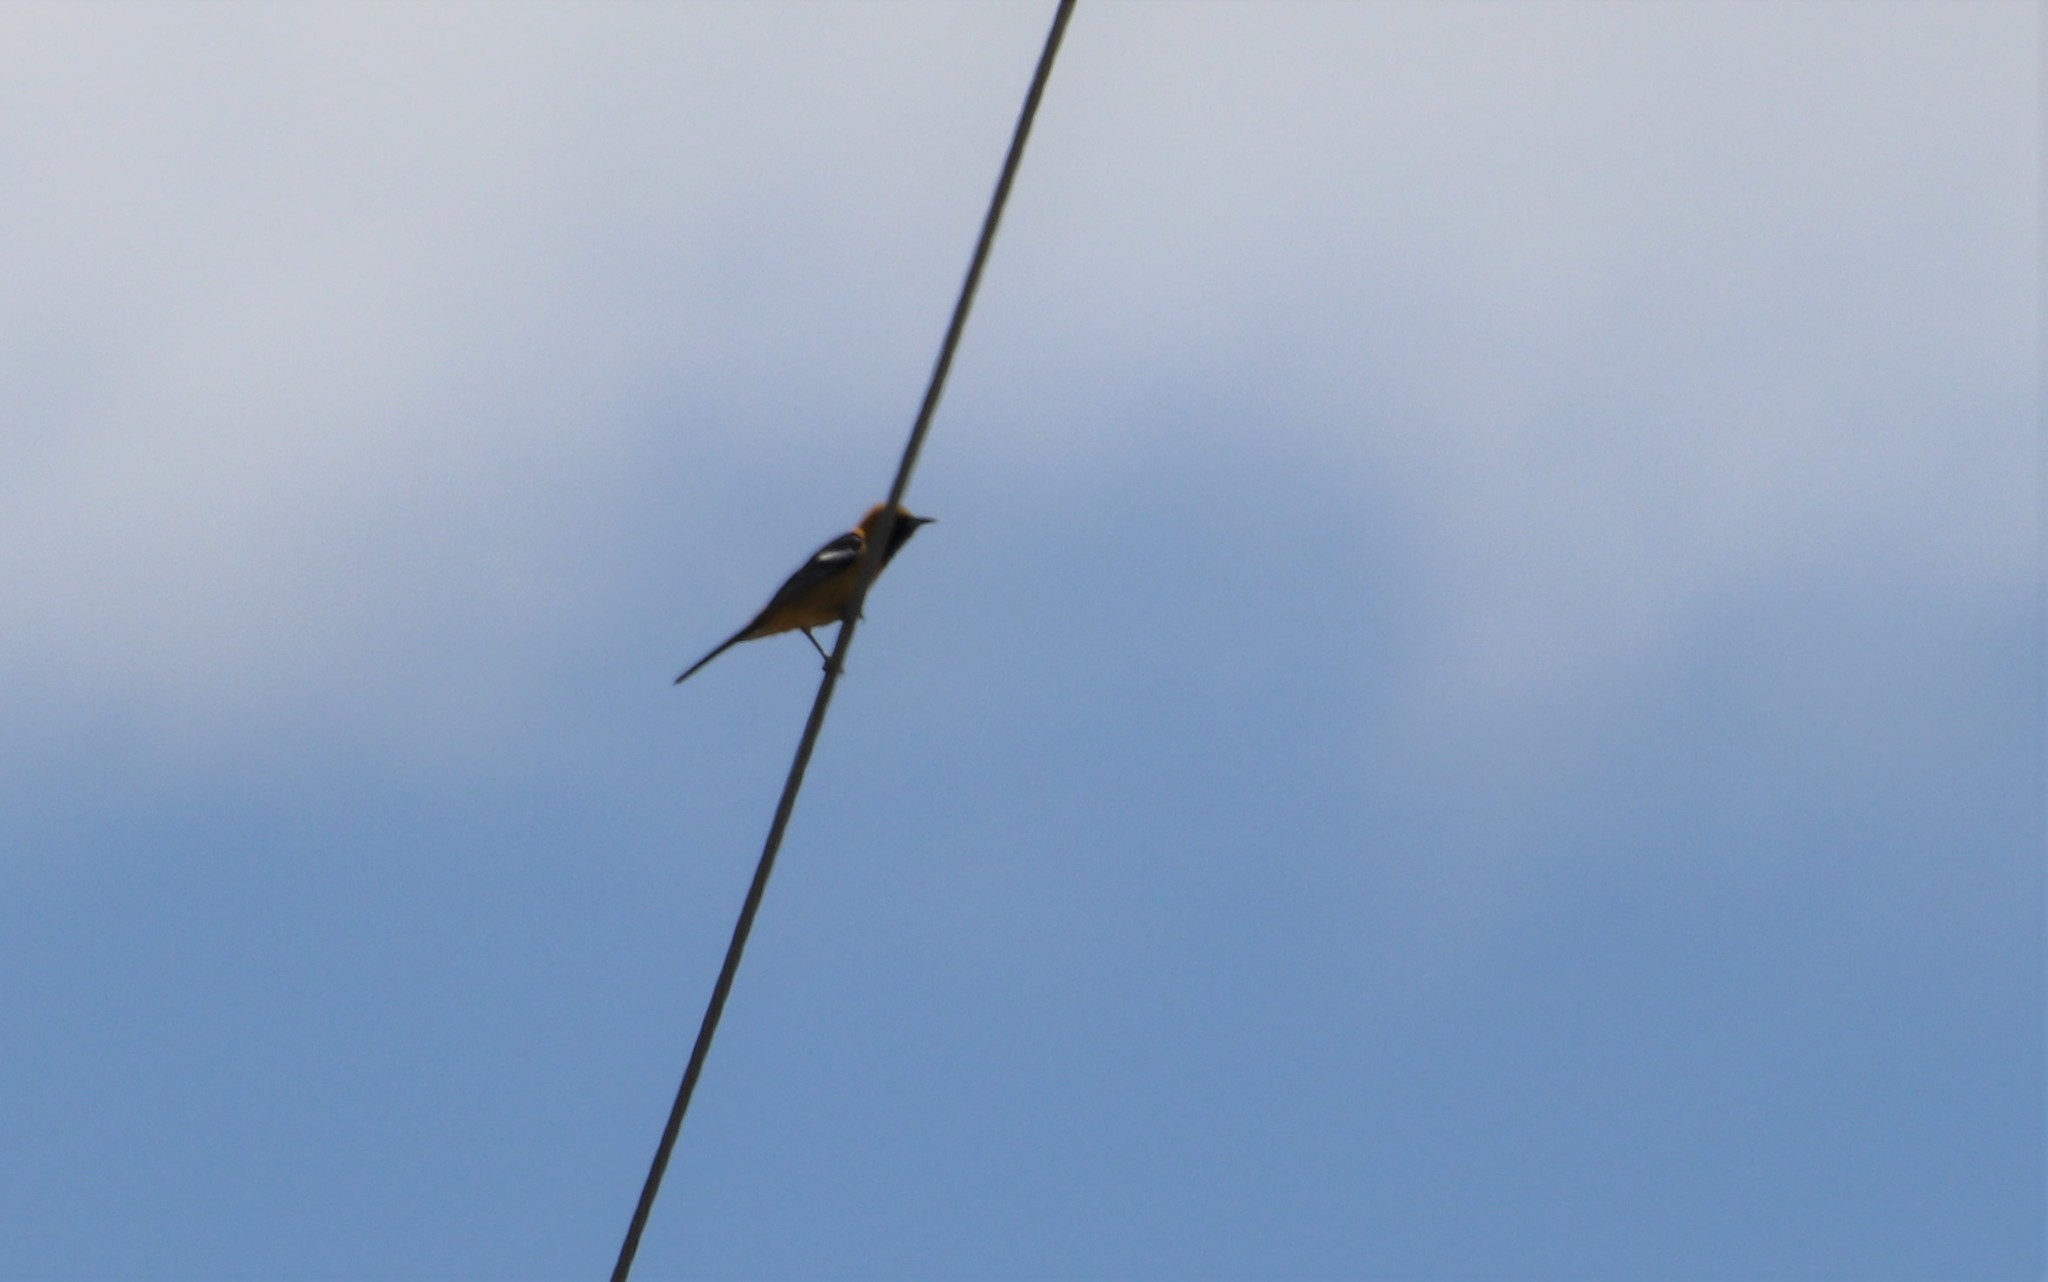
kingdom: Animalia
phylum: Chordata
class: Aves
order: Passeriformes
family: Icteridae
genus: Icterus
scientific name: Icterus cucullatus
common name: Hooded oriole
